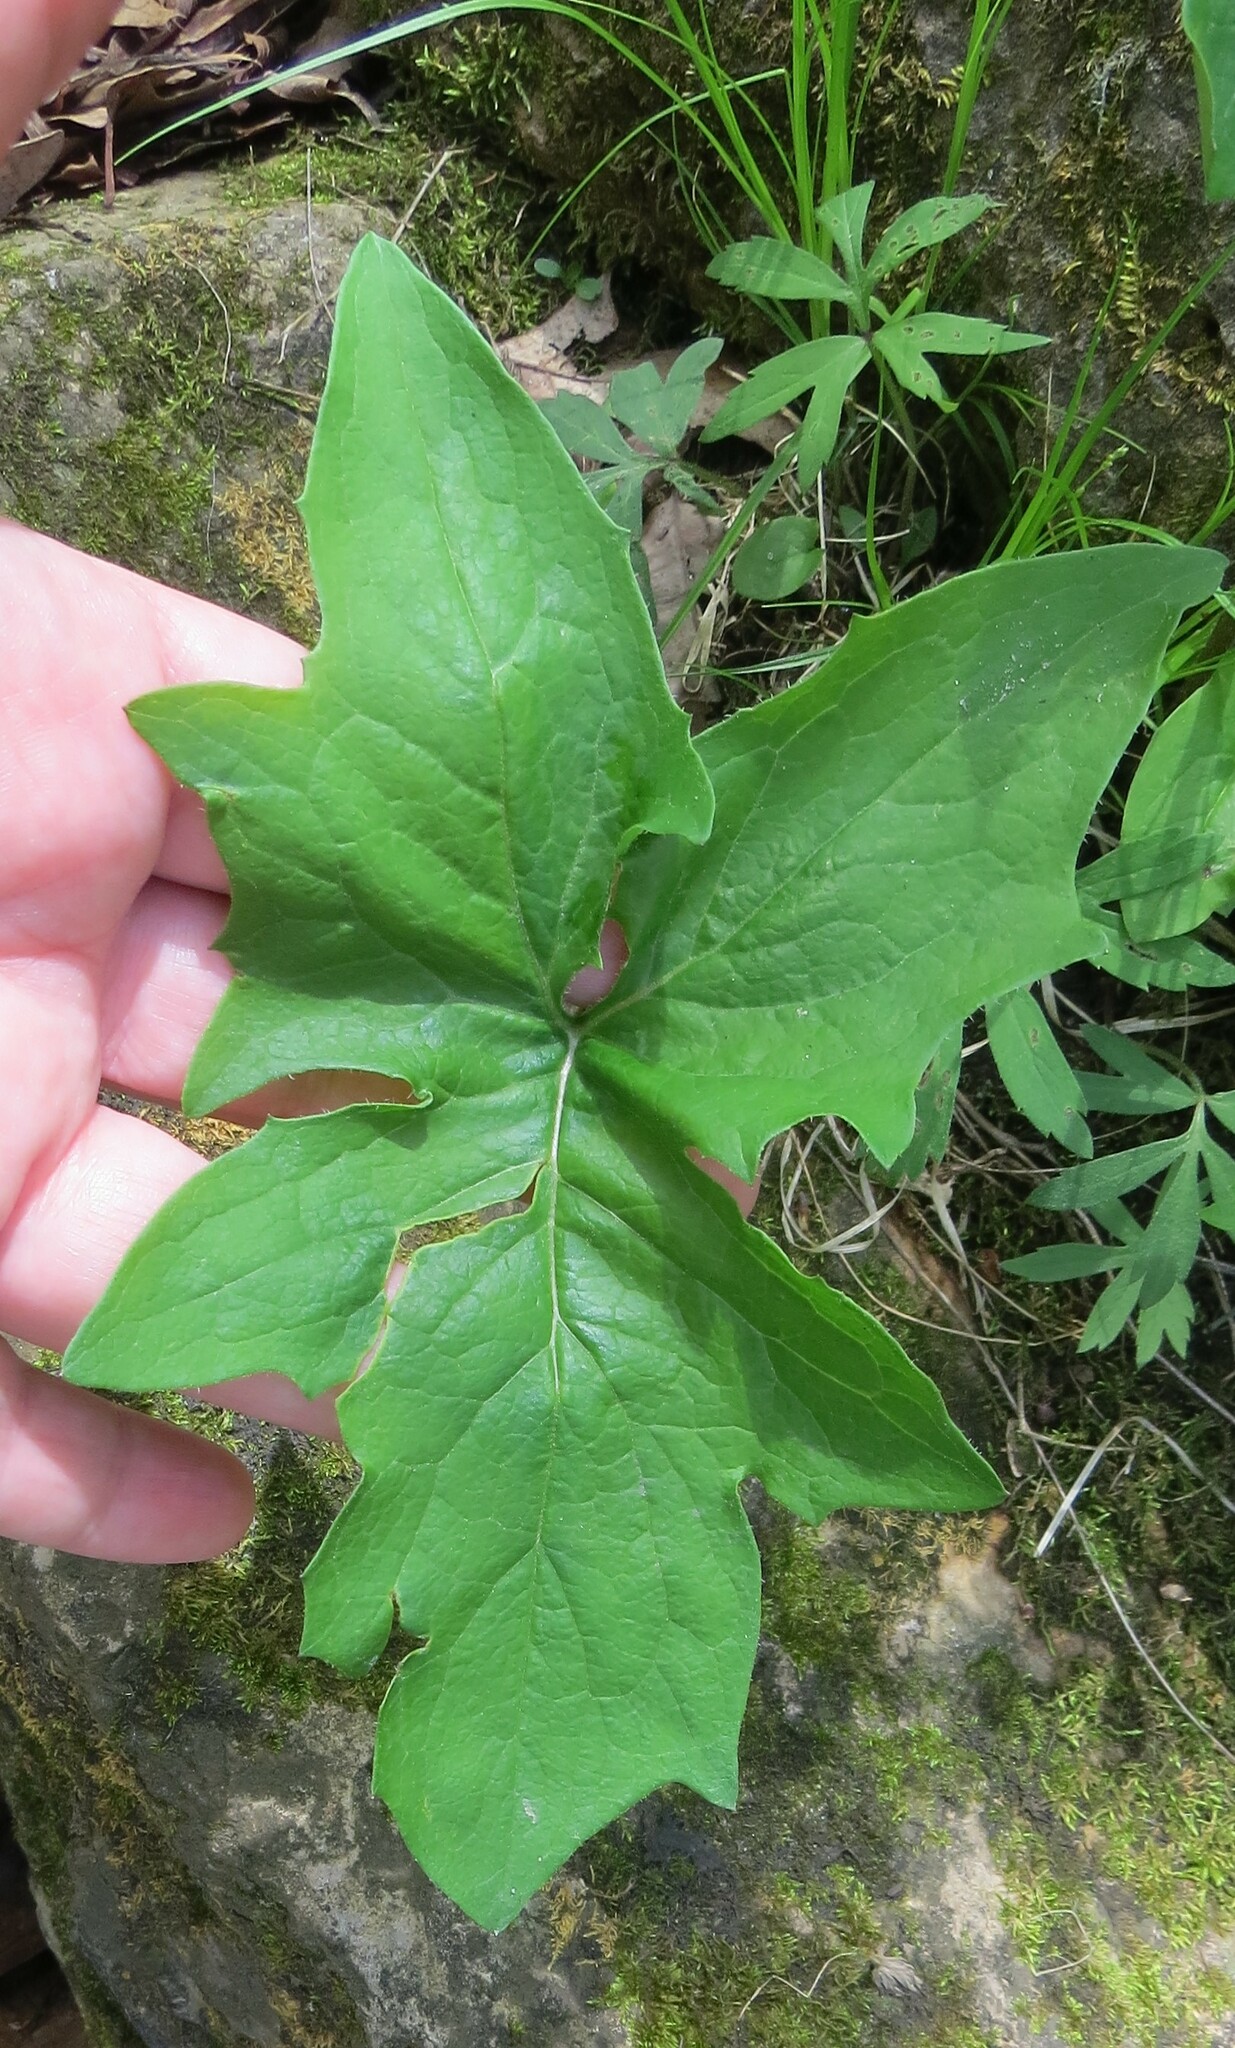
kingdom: Plantae
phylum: Tracheophyta
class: Magnoliopsida
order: Asterales
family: Asteraceae
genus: Nabalus
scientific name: Nabalus albus
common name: White rattlesnakeroot
